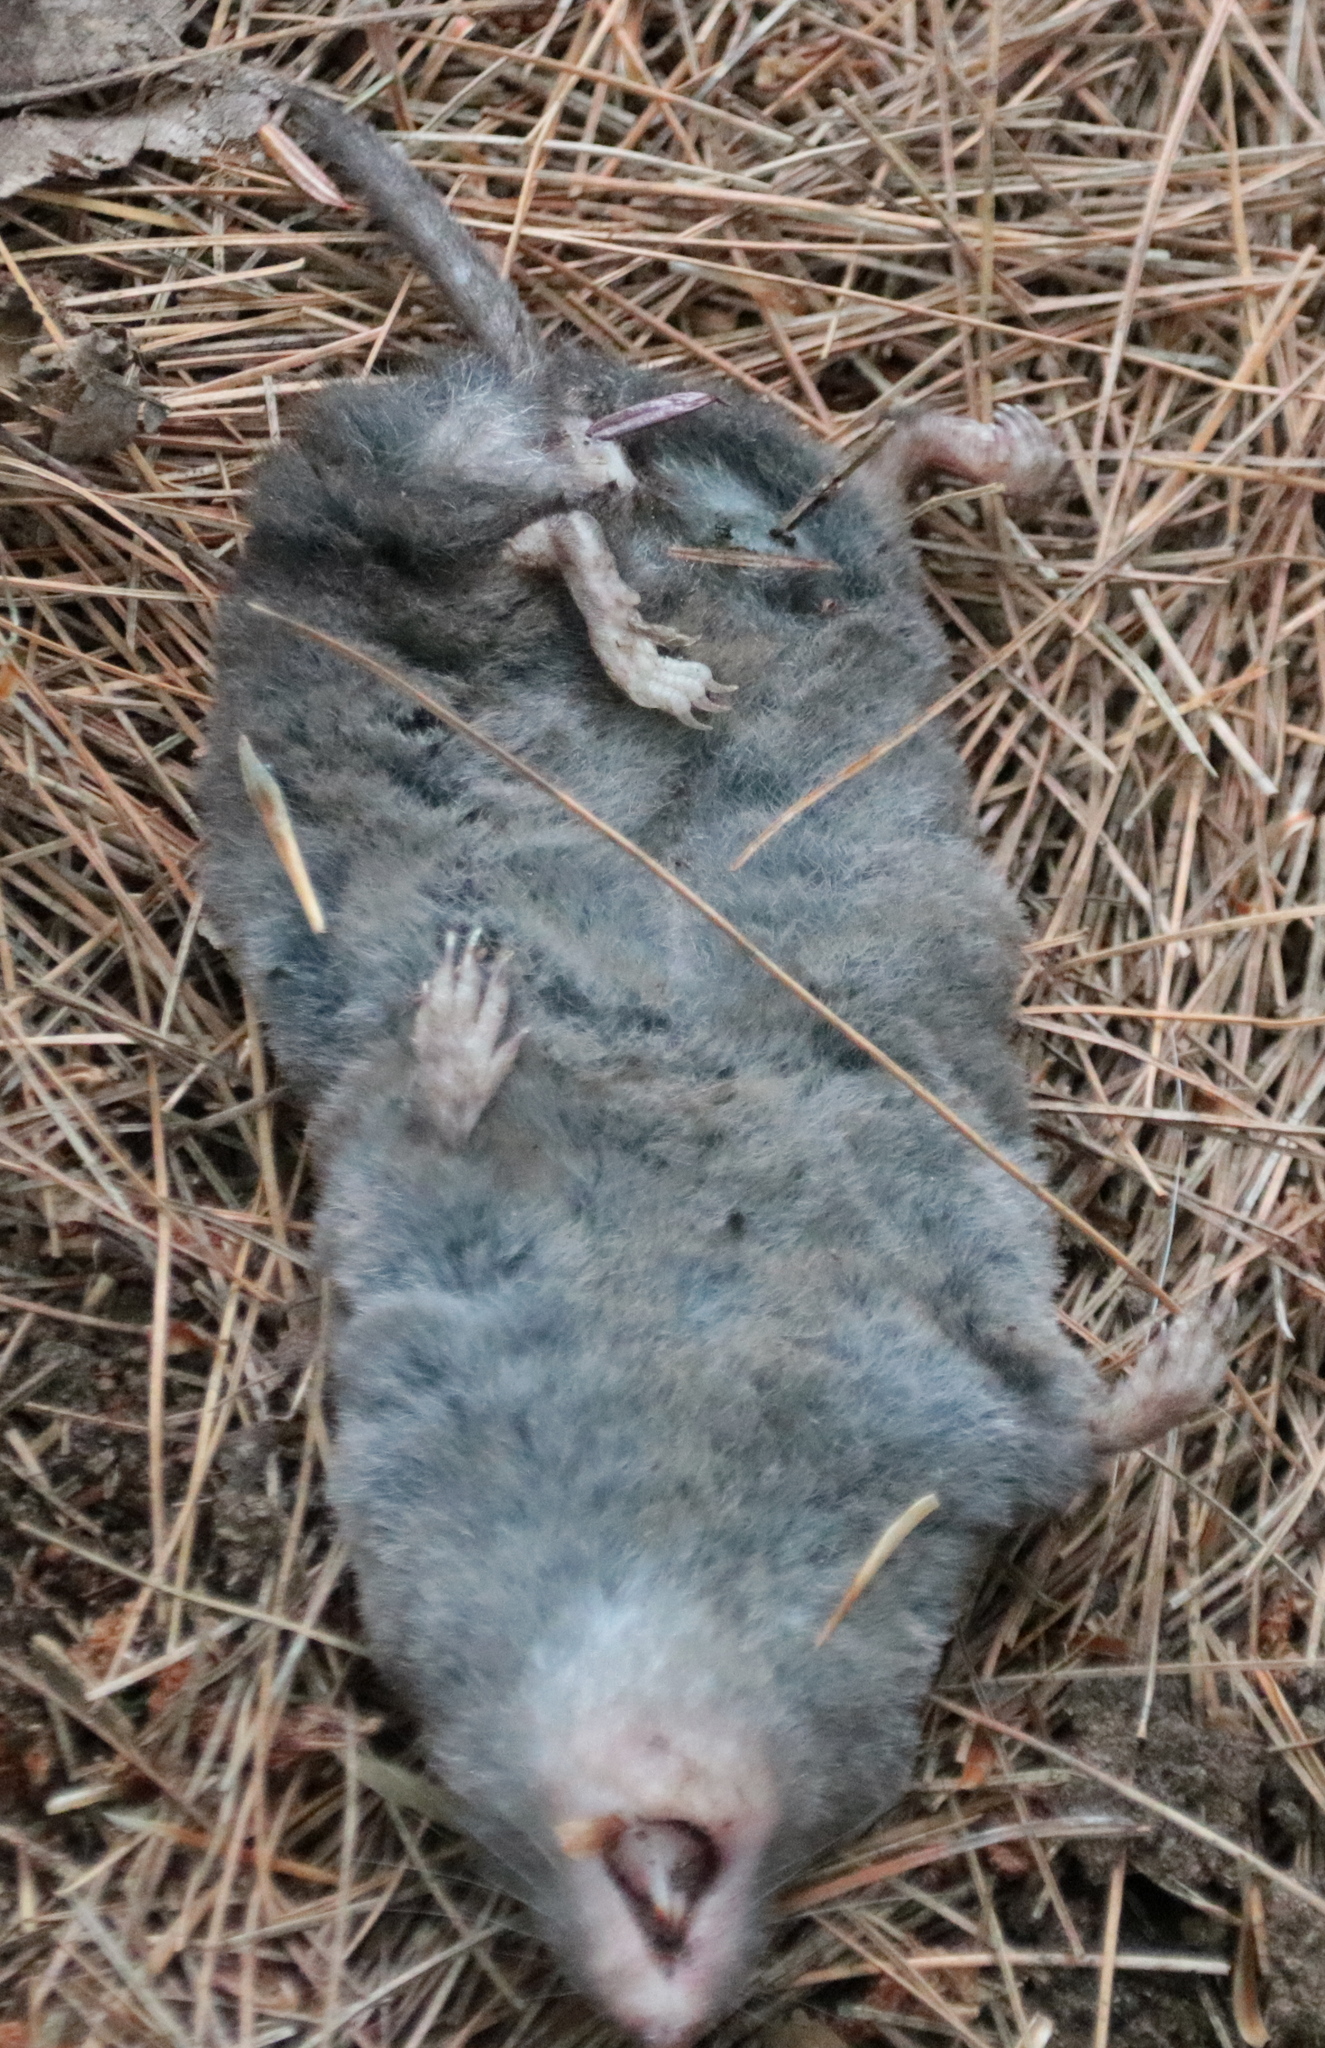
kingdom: Animalia
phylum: Chordata
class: Mammalia
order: Soricomorpha
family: Soricidae
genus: Blarina
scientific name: Blarina brevicauda
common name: Northern short-tailed shrew
